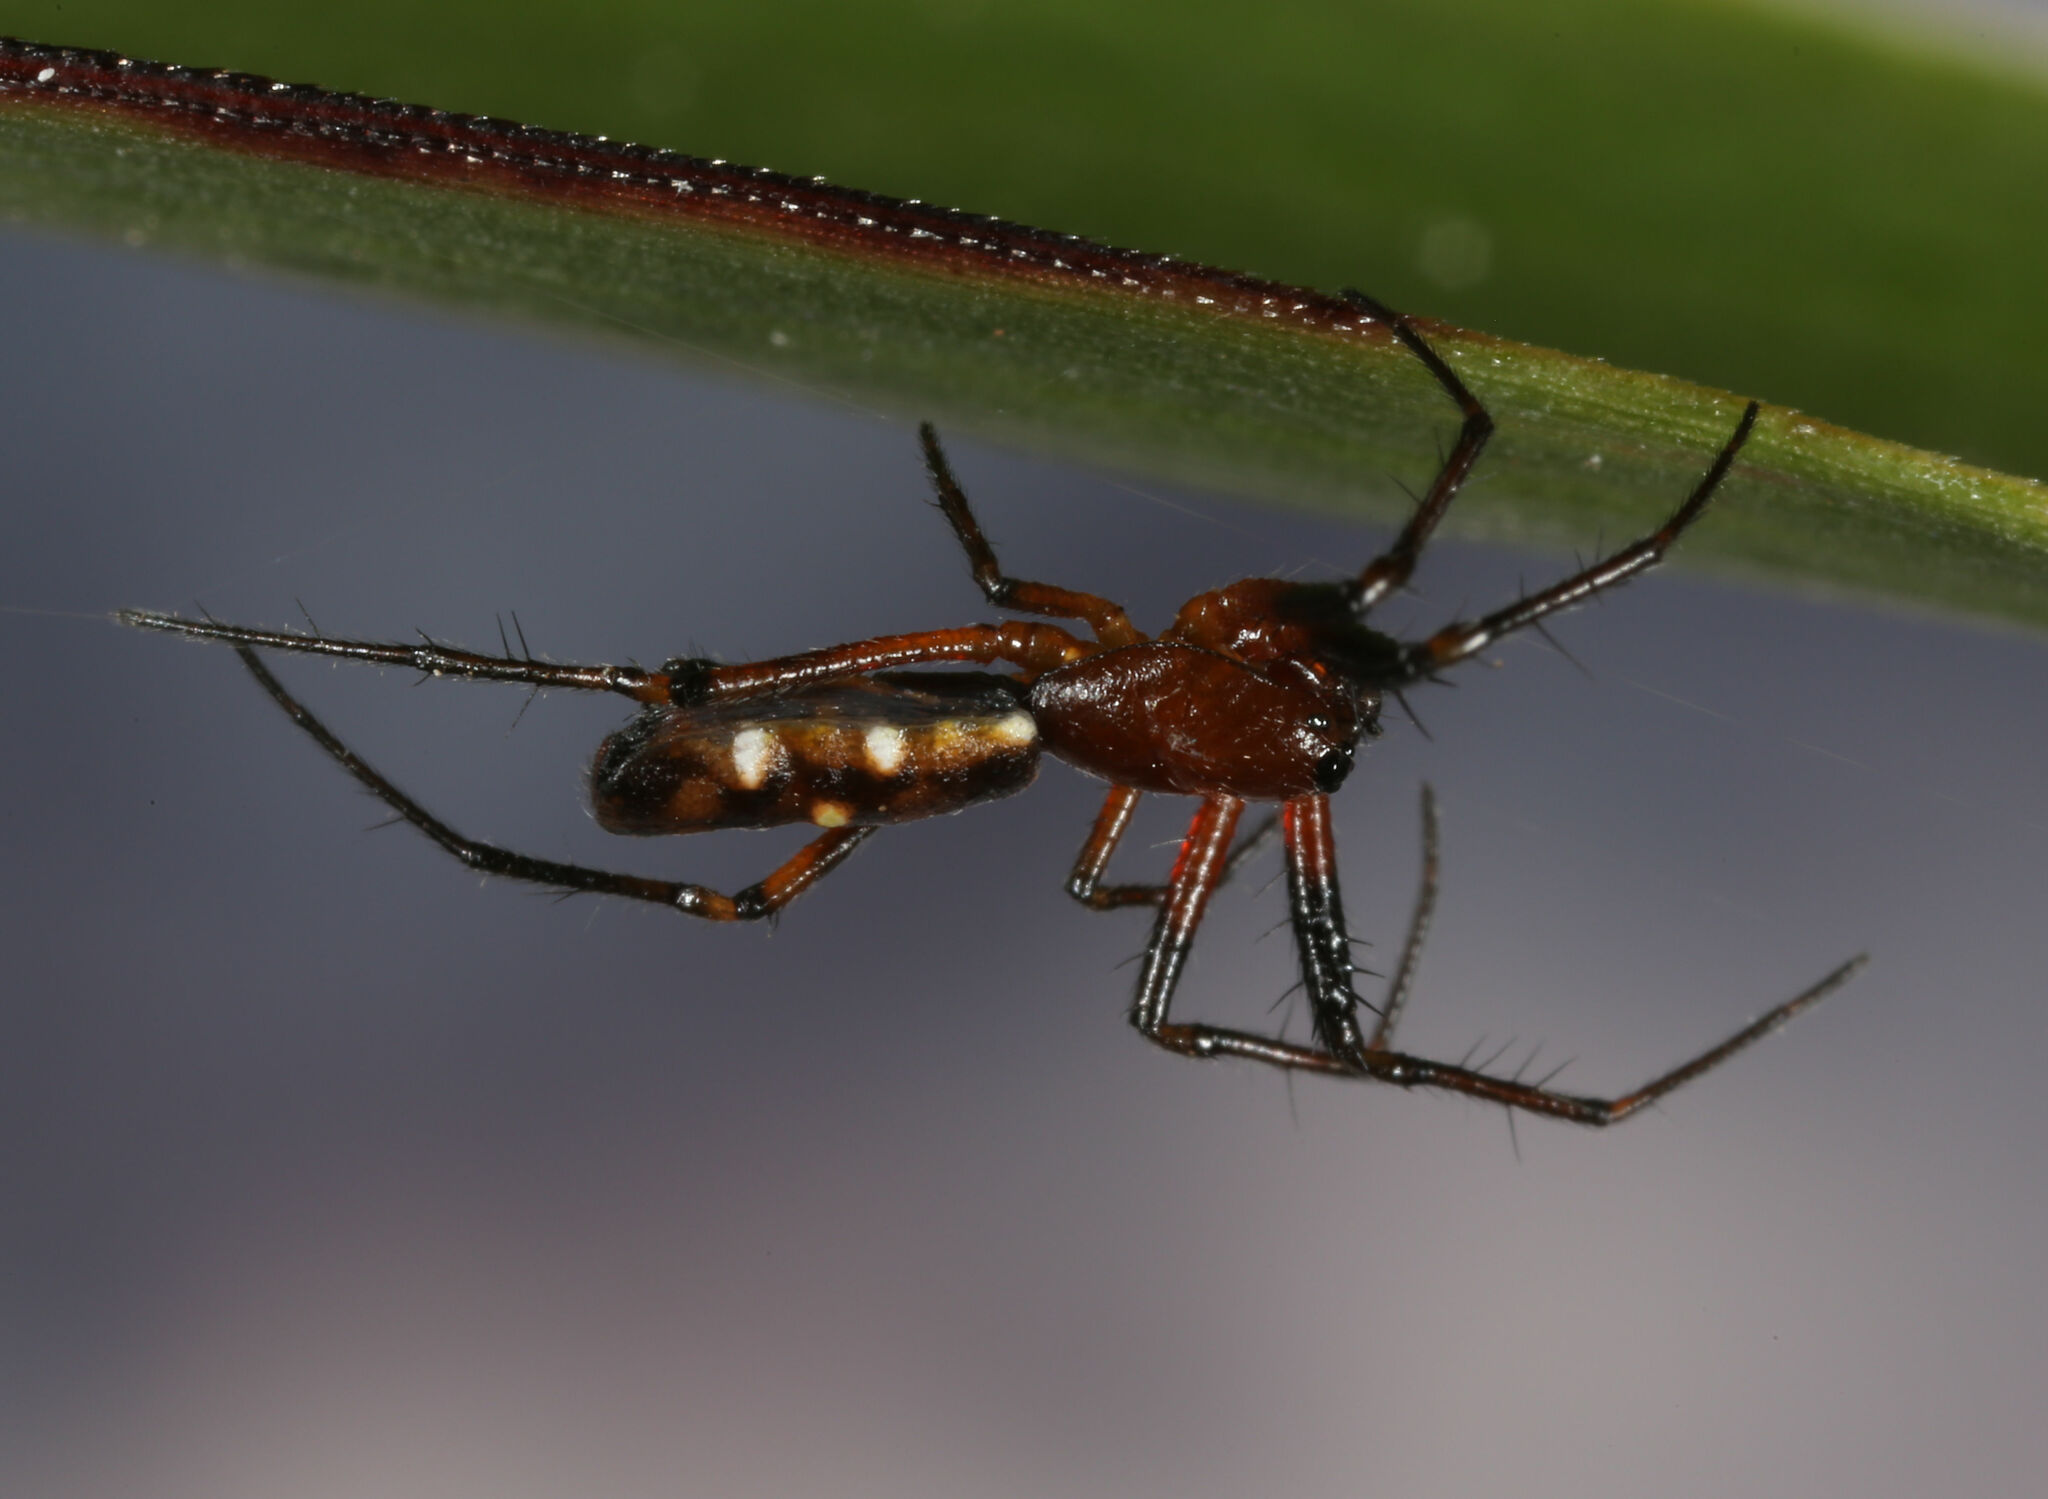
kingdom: Animalia
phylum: Arthropoda
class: Arachnida
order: Araneae
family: Araneidae
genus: Micrathena
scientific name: Micrathena funebris
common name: Orb weavers
